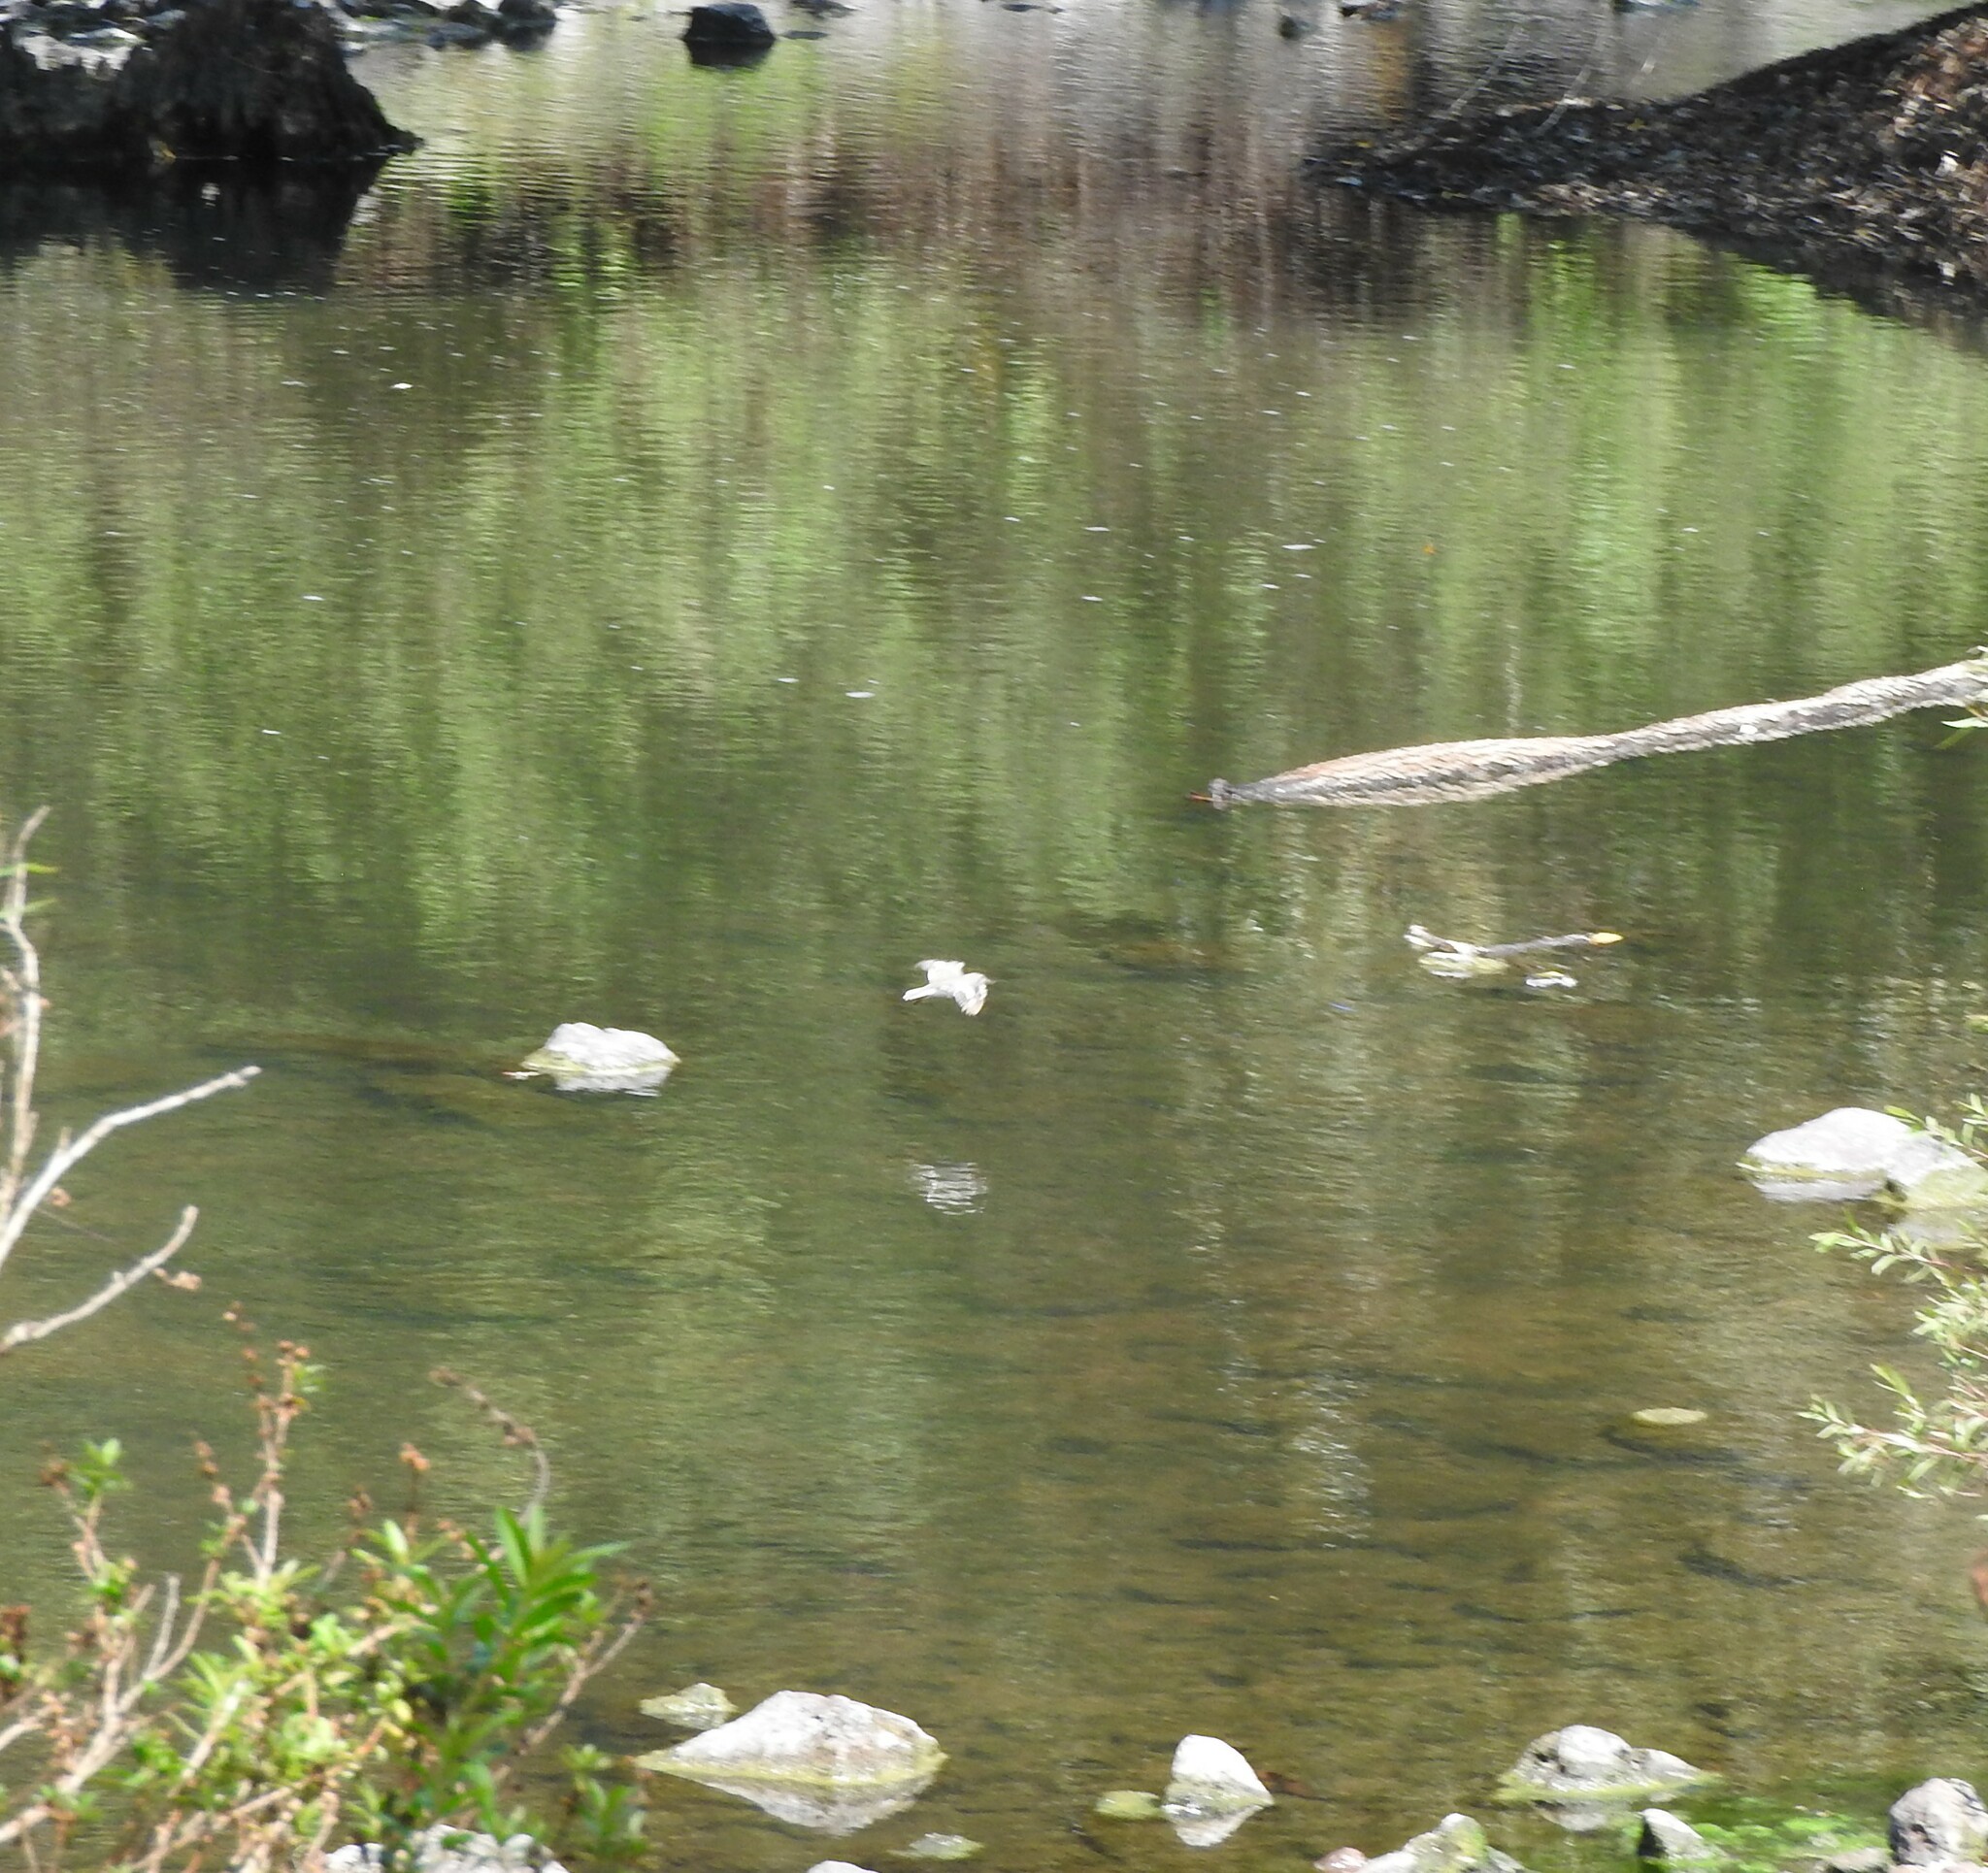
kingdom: Animalia
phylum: Chordata
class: Aves
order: Charadriiformes
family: Scolopacidae
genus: Actitis
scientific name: Actitis macularius
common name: Spotted sandpiper
